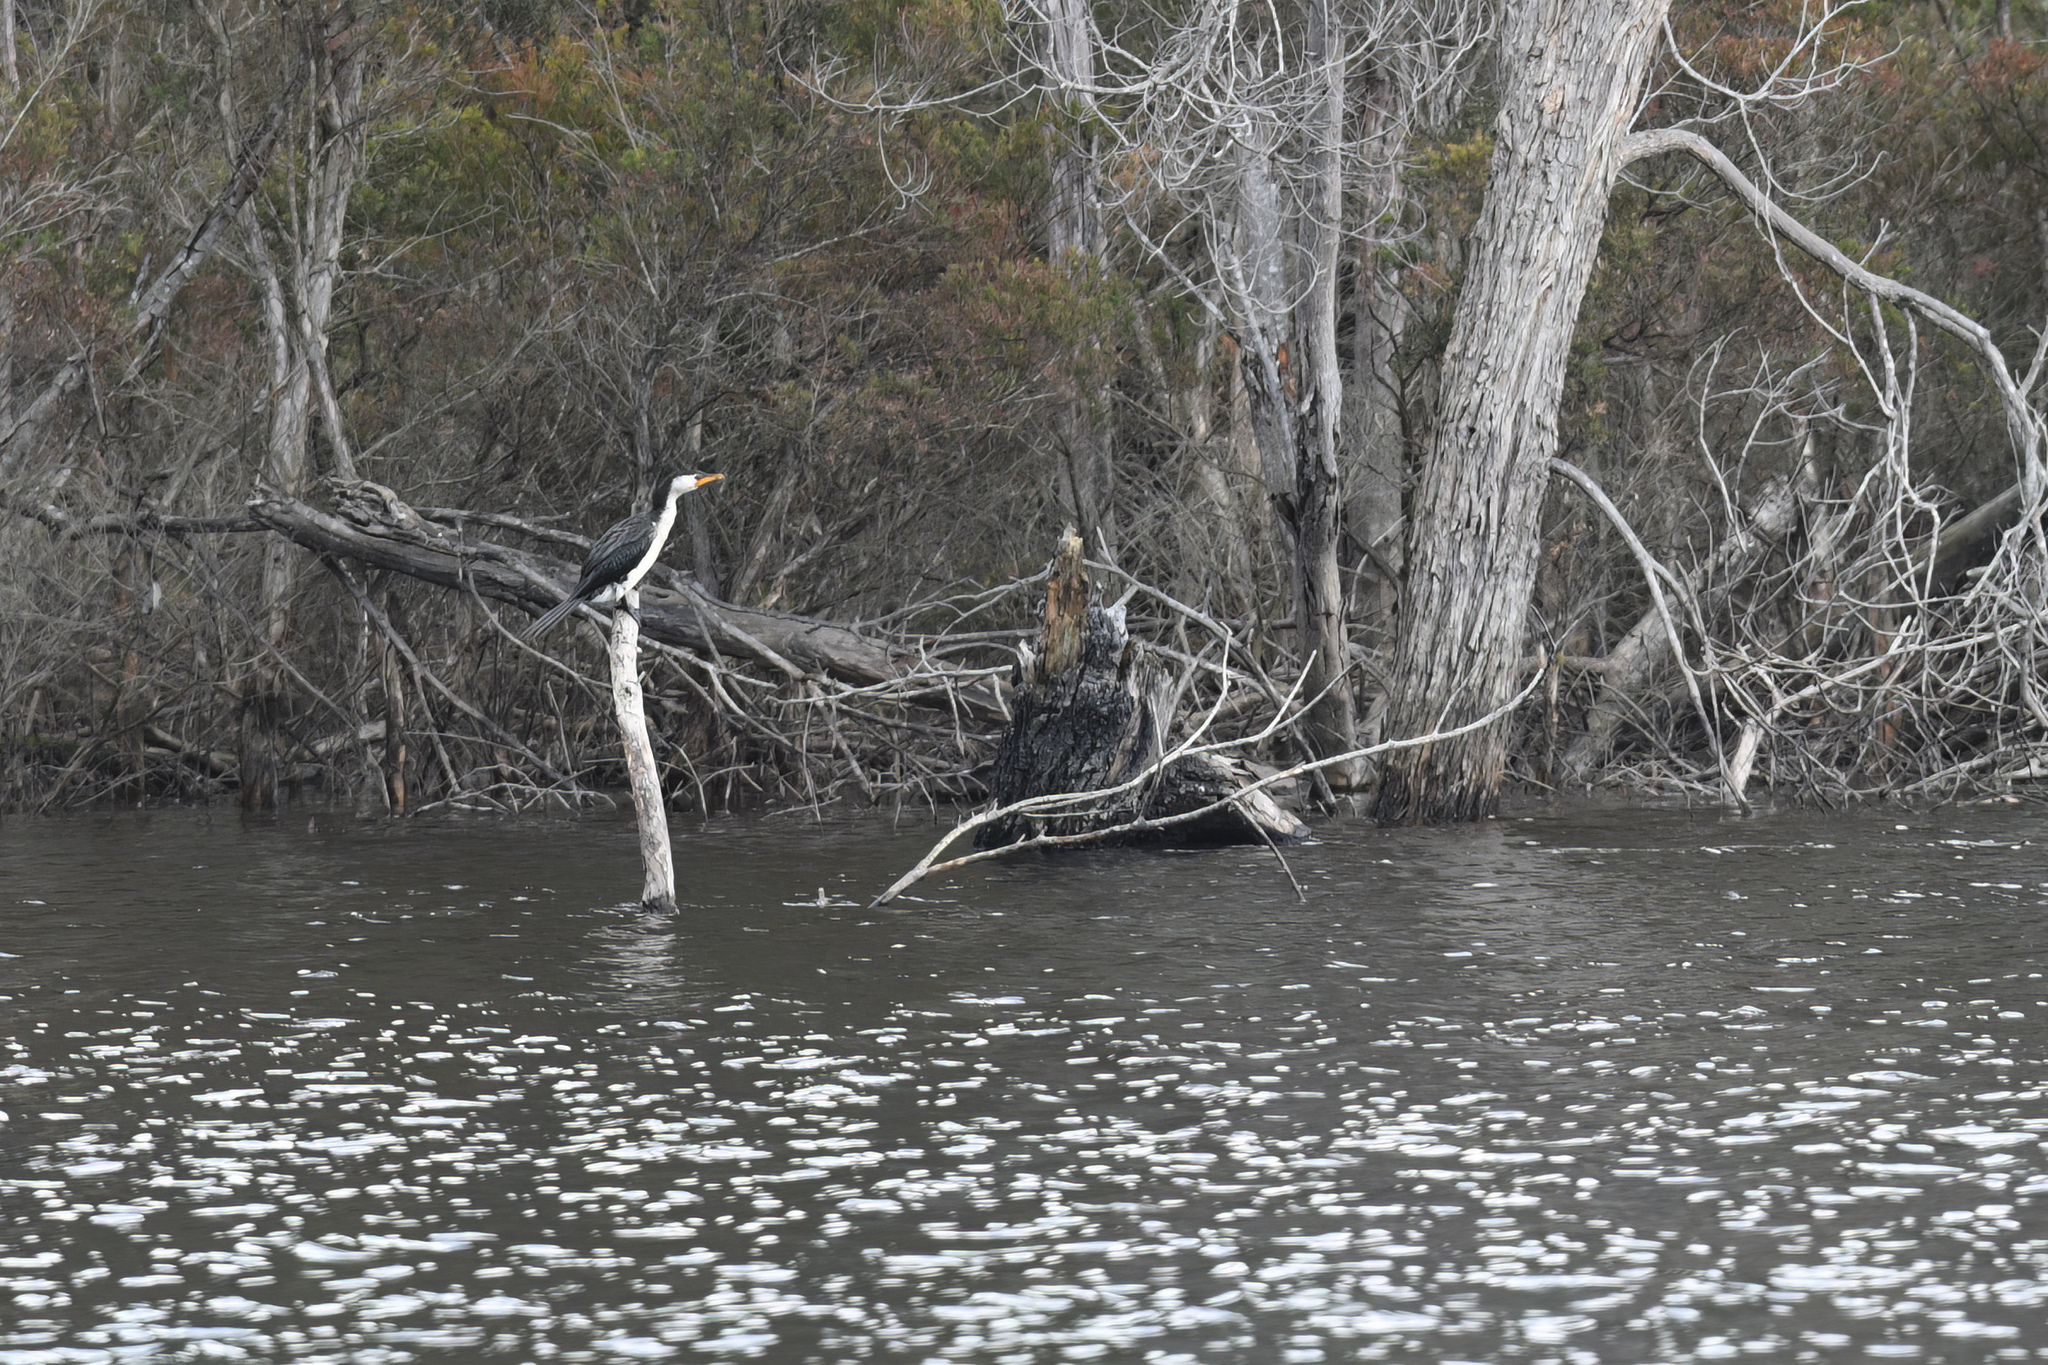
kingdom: Animalia
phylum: Chordata
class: Aves
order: Suliformes
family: Phalacrocoracidae
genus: Microcarbo
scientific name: Microcarbo melanoleucos
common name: Little pied cormorant
